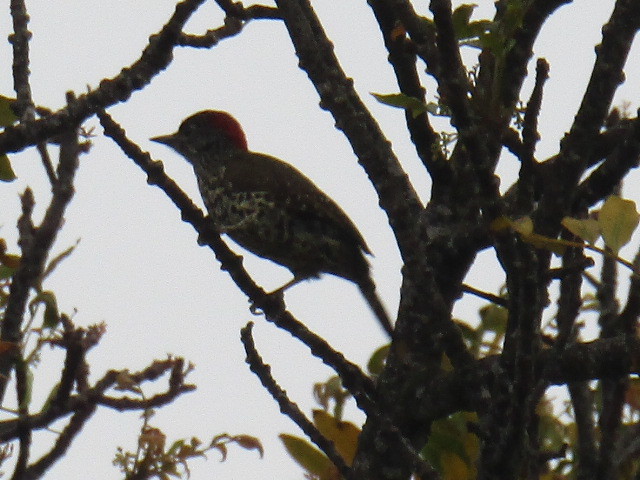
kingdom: Animalia
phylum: Chordata
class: Aves
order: Piciformes
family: Picidae
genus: Campethera
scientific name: Campethera notata
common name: Knysna woodpecker
